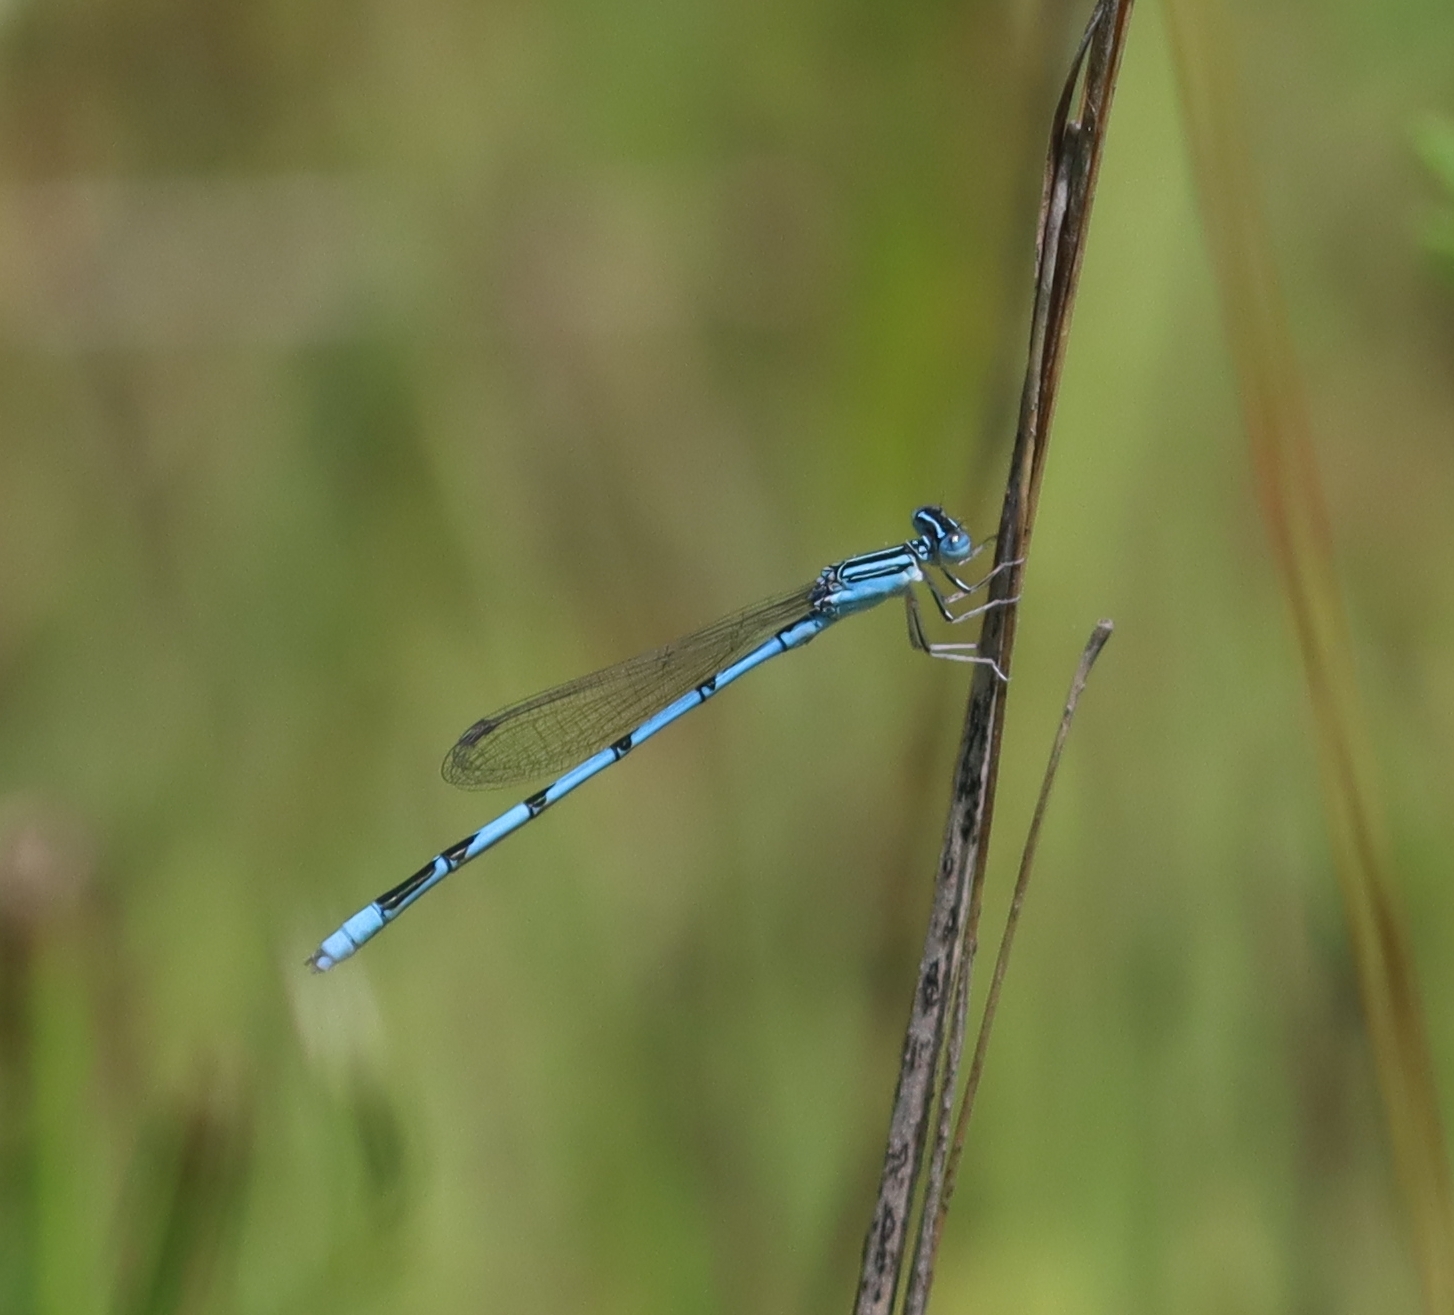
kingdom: Animalia
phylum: Arthropoda
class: Insecta
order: Odonata
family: Coenagrionidae
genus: Enallagma
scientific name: Enallagma basidens
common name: Double-striped bluet
